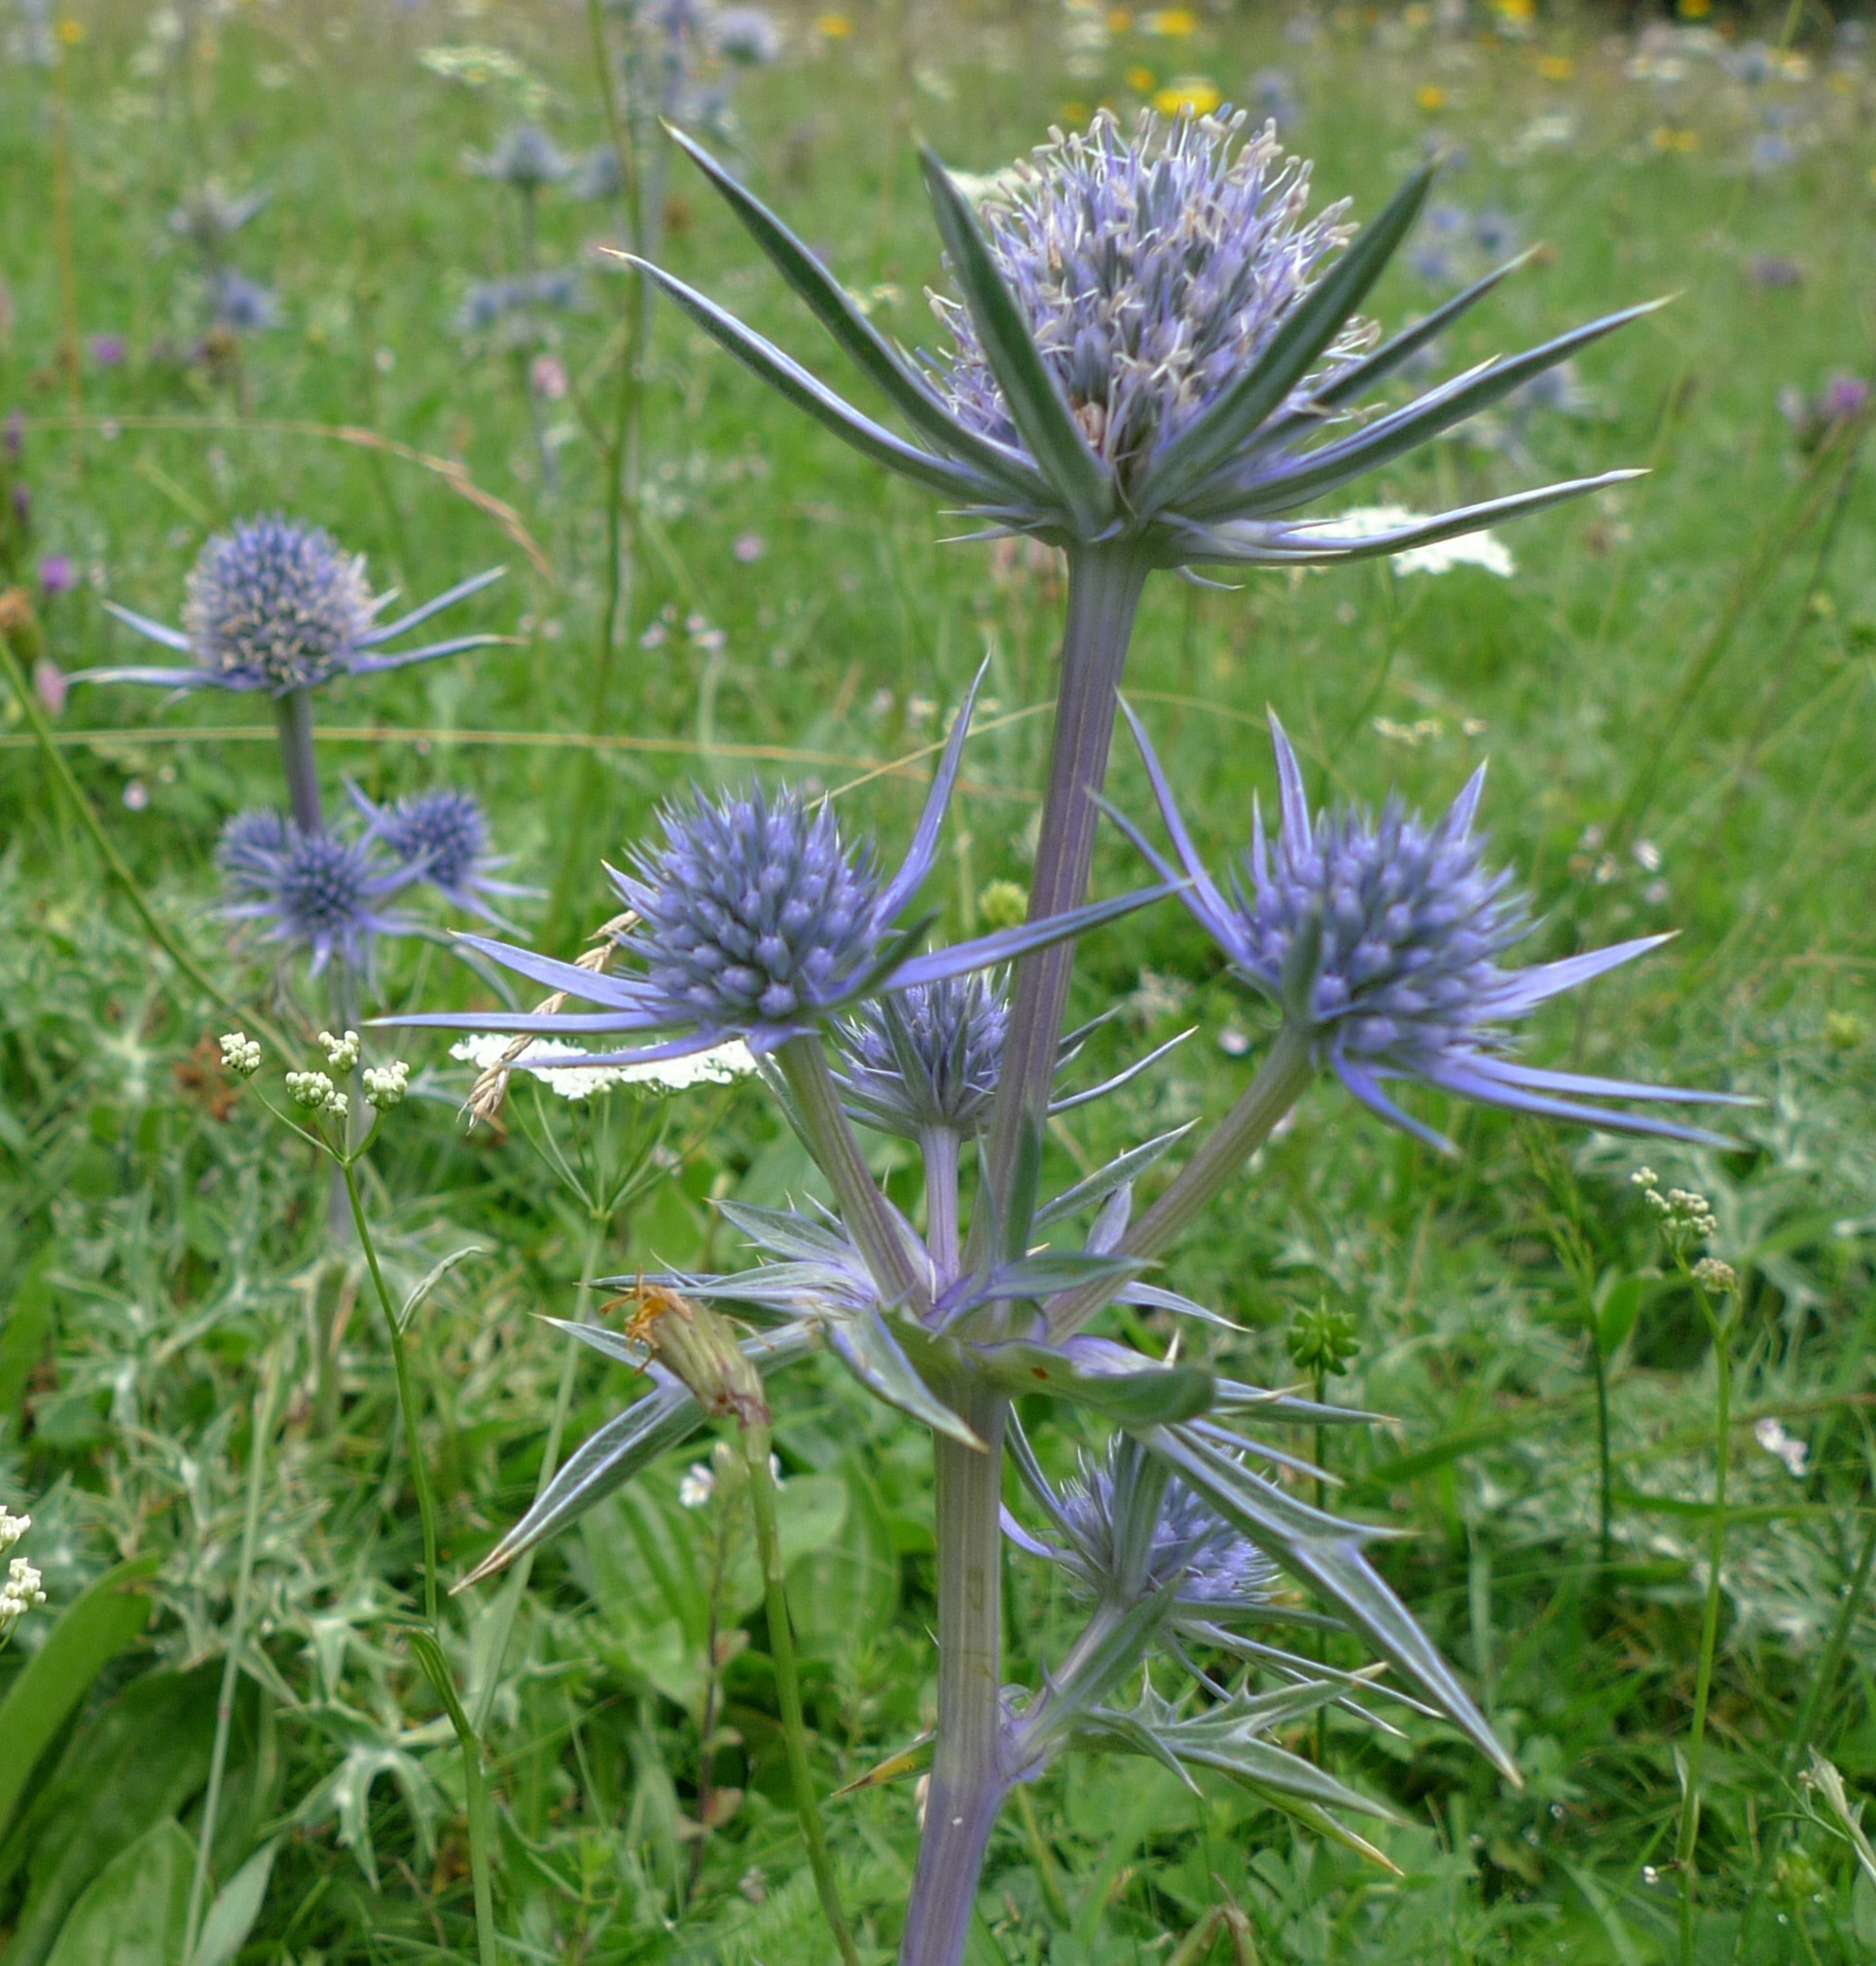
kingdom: Plantae
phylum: Tracheophyta
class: Magnoliopsida
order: Apiales
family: Apiaceae
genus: Eryngium
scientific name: Eryngium bourgatii
